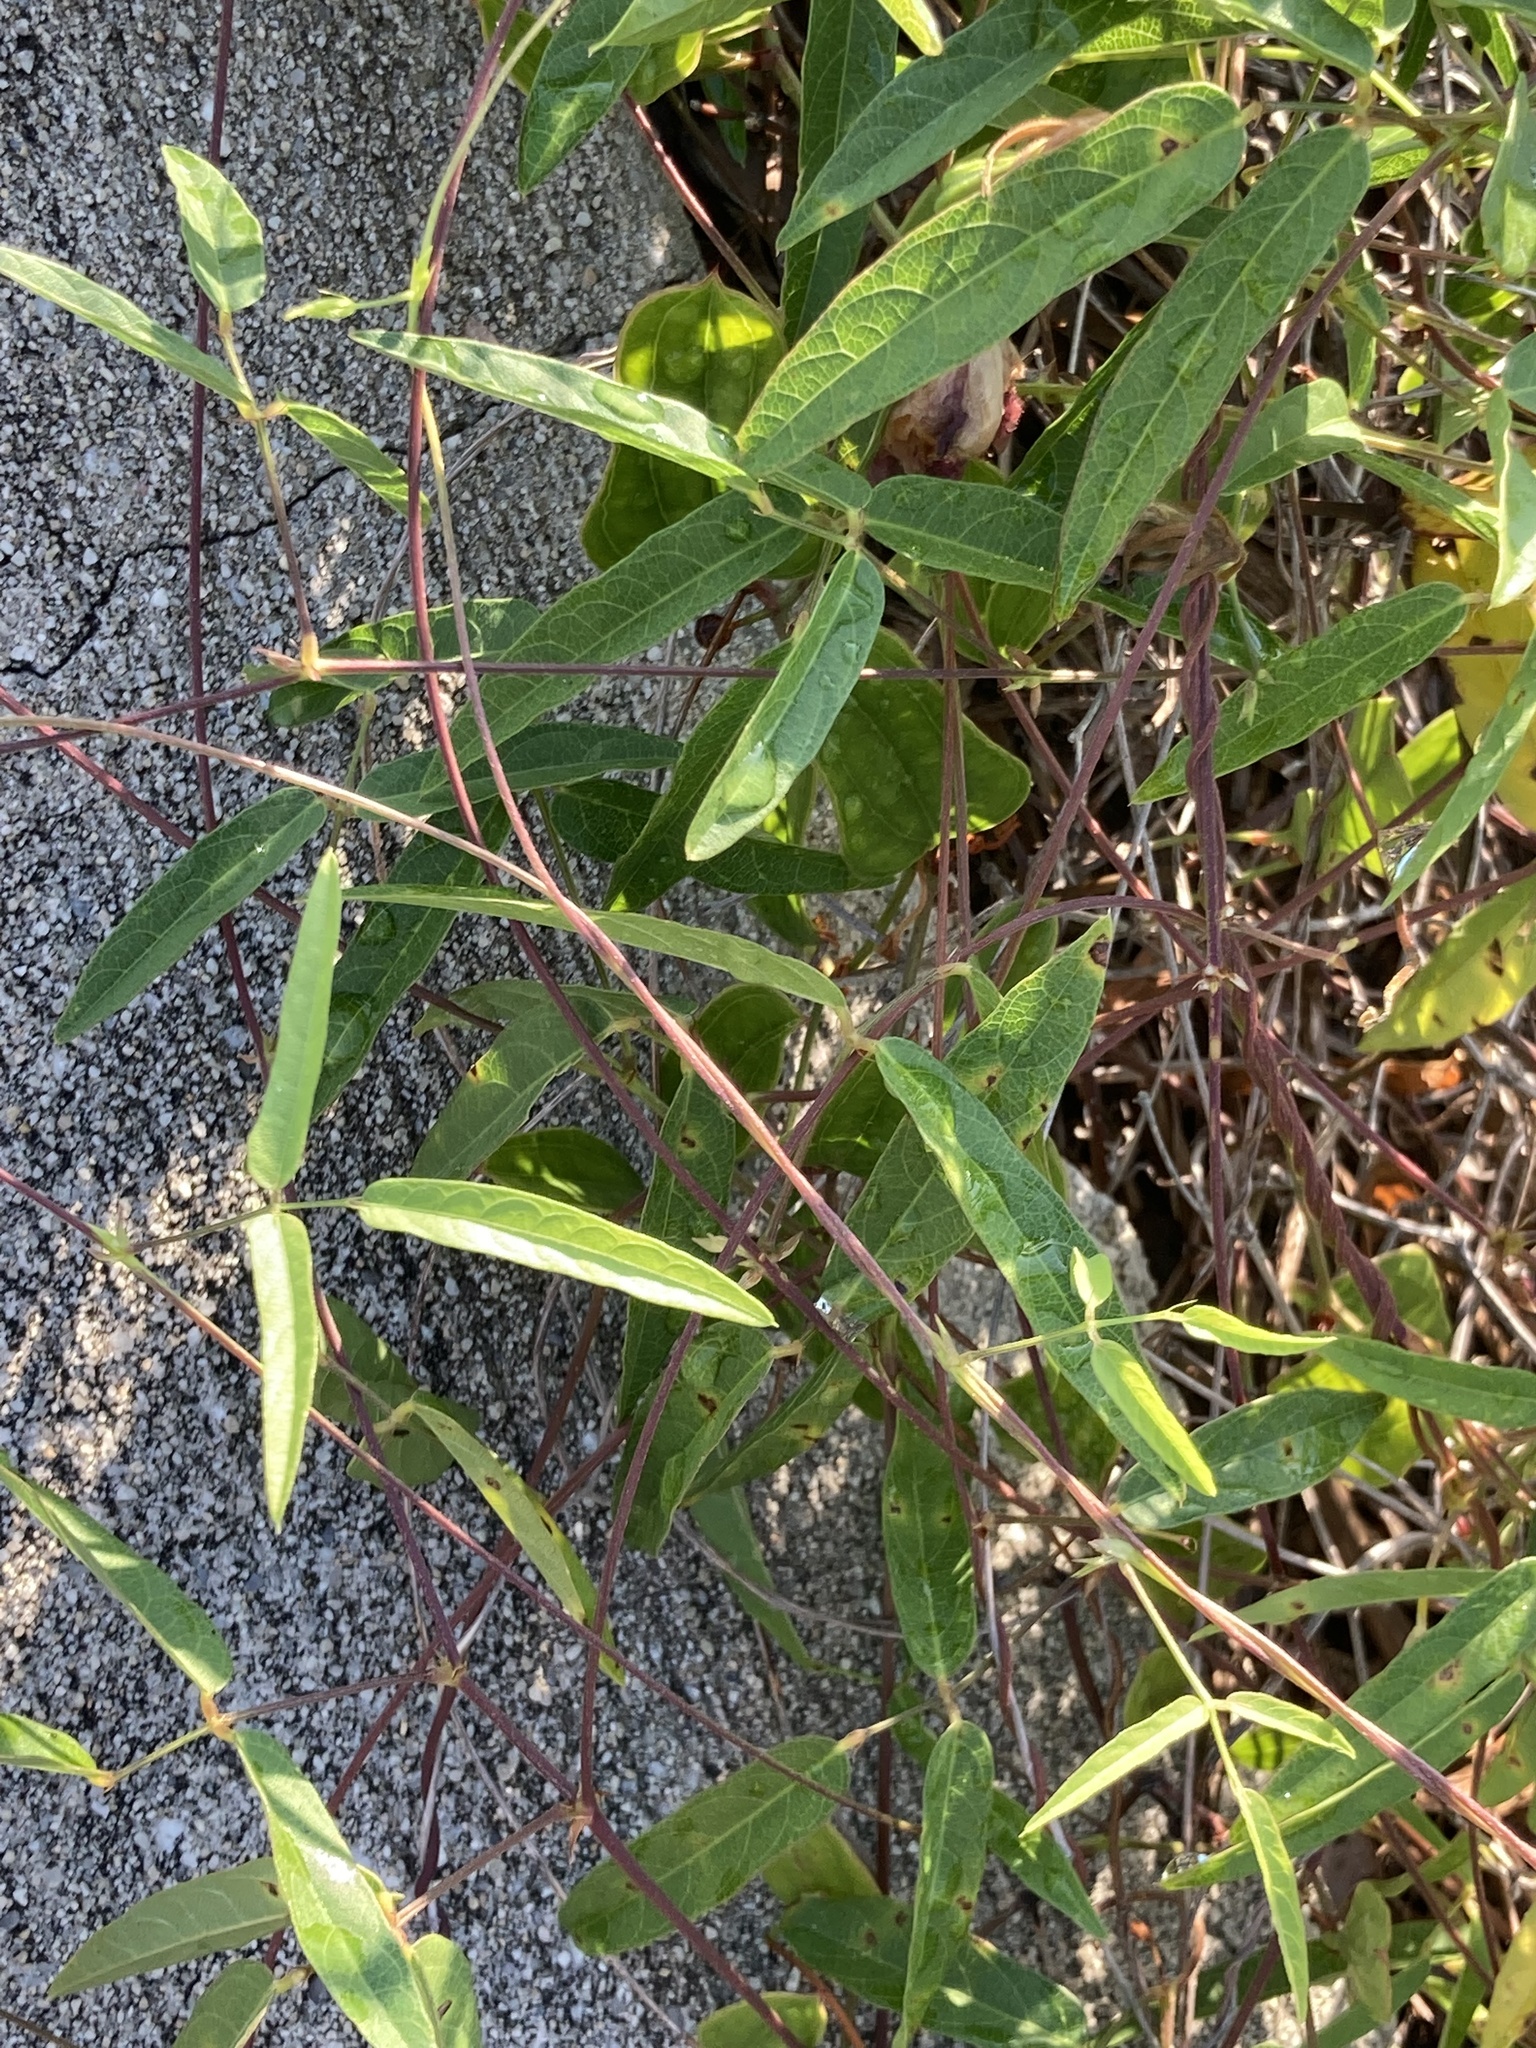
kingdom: Plantae
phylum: Tracheophyta
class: Magnoliopsida
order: Fabales
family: Fabaceae
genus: Centrosema
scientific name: Centrosema virginianum
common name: Butterfly-pea
